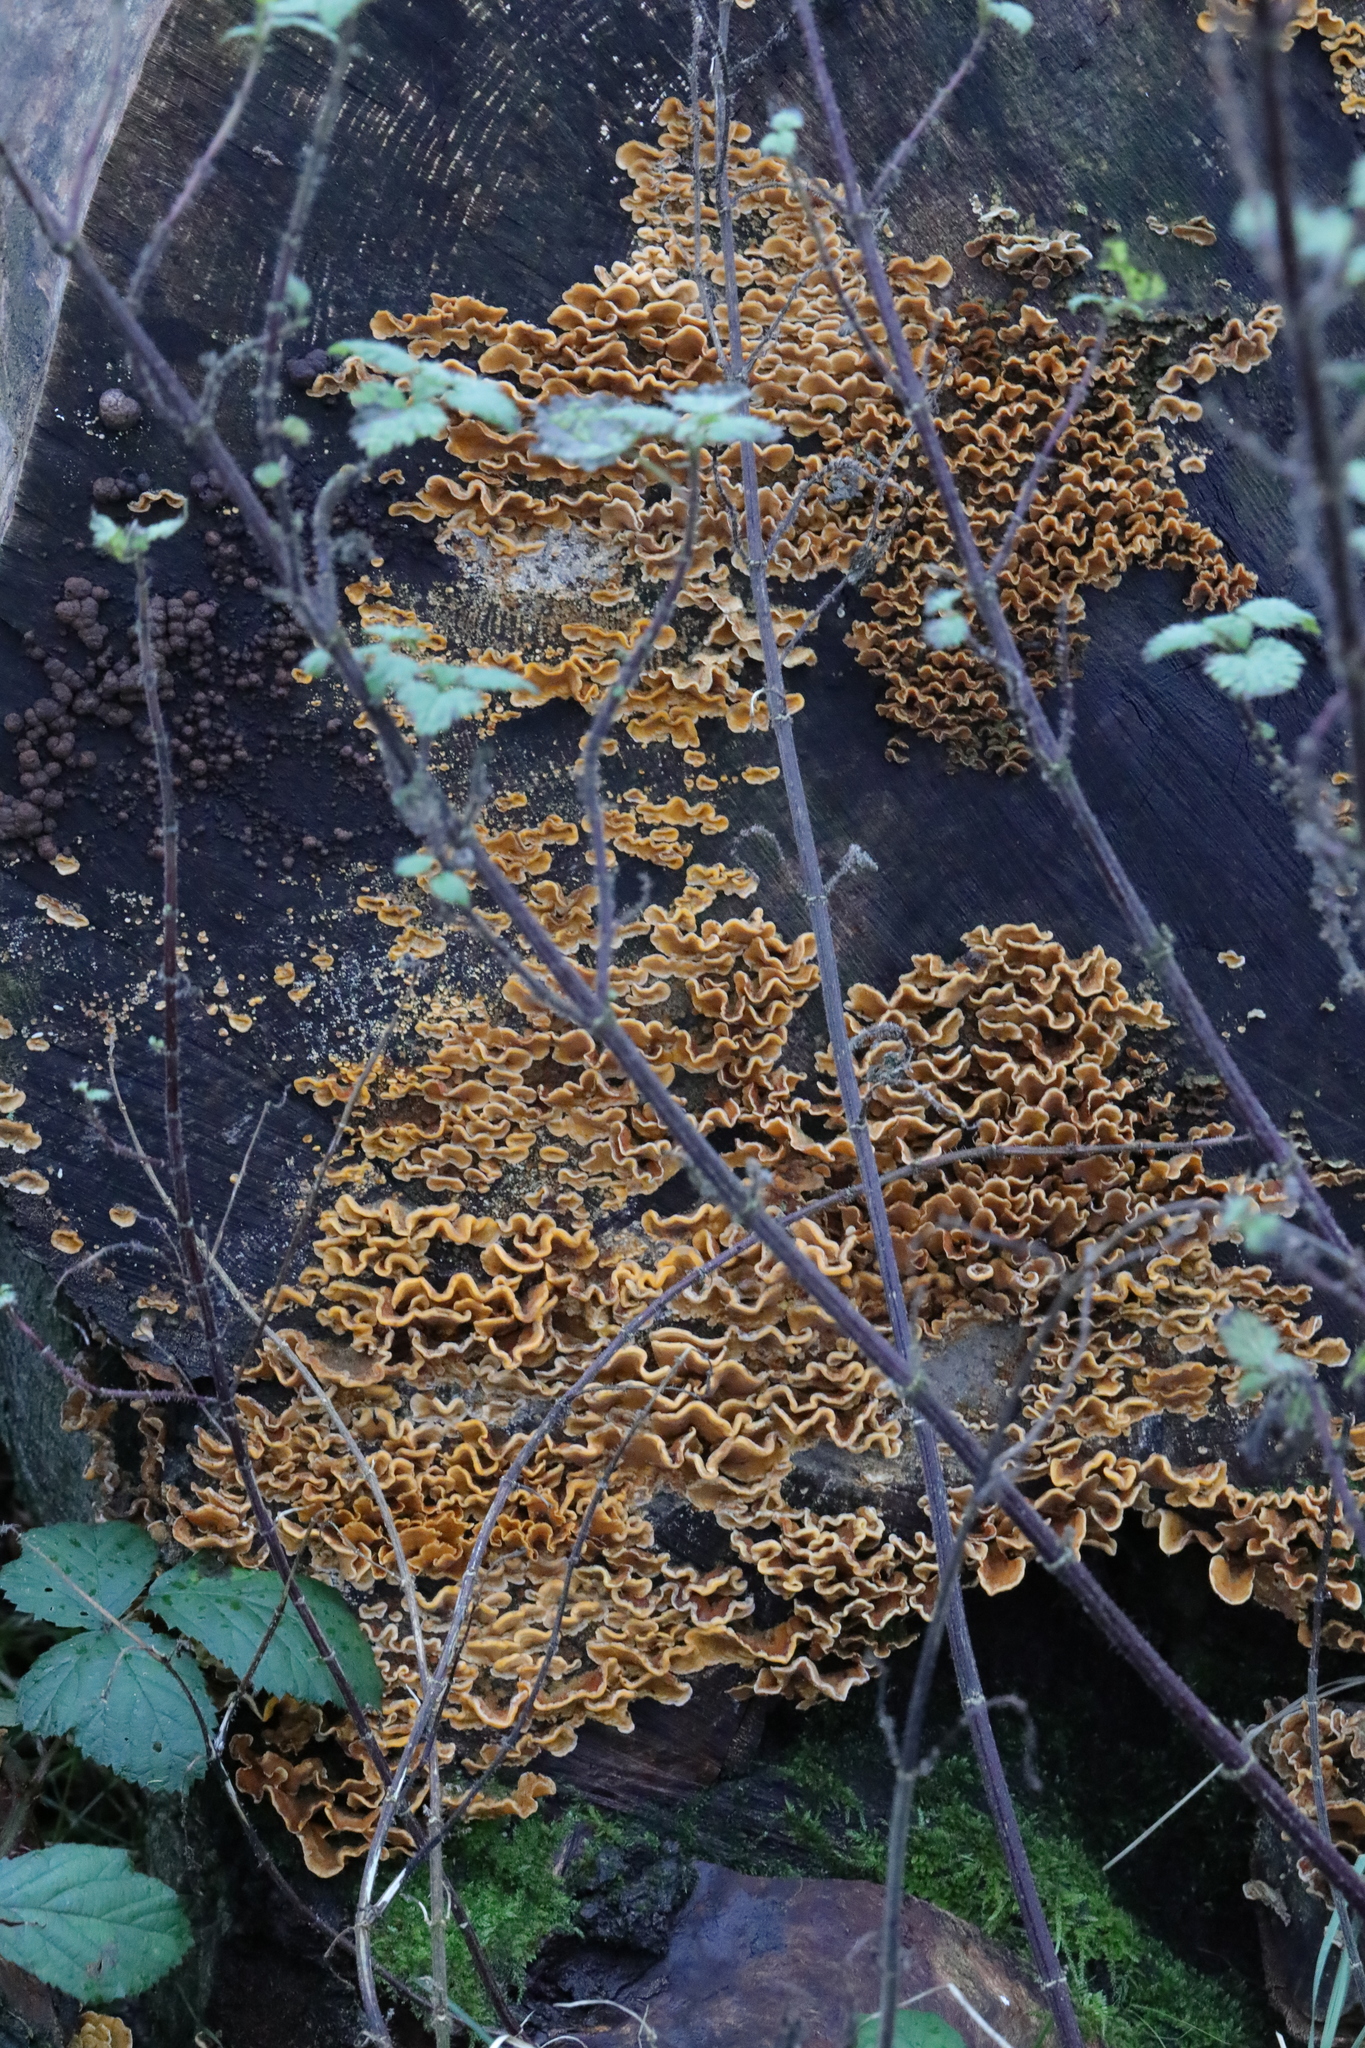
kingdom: Fungi
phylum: Basidiomycota
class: Agaricomycetes
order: Russulales
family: Stereaceae
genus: Stereum
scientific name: Stereum hirsutum
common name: Hairy curtain crust
